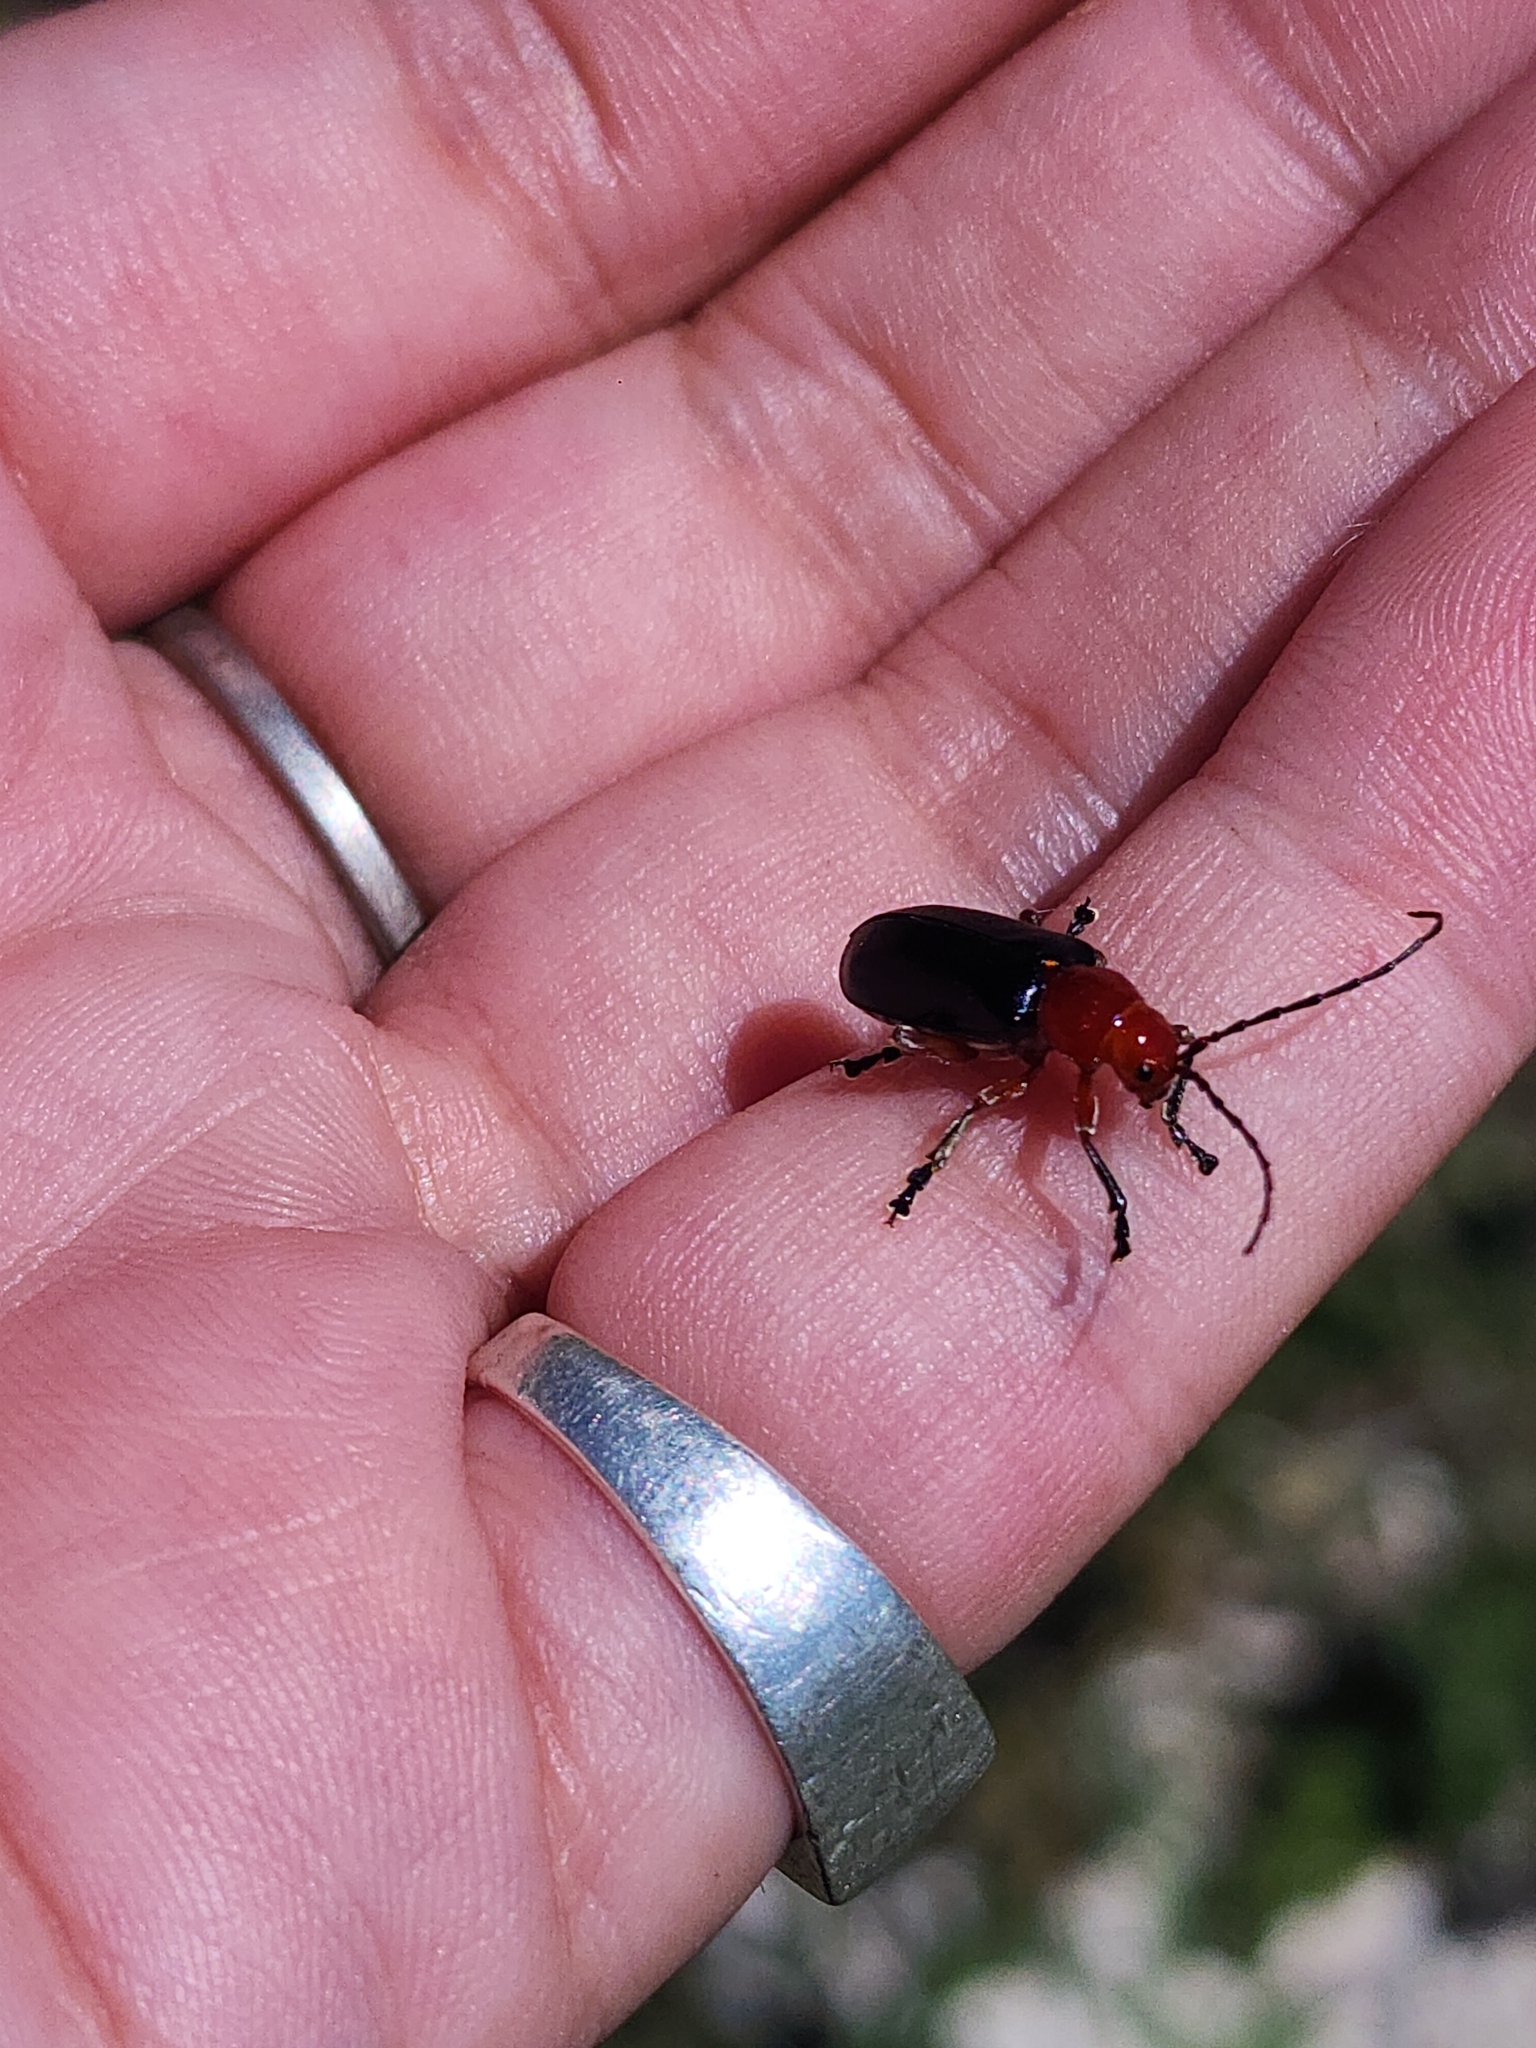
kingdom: Animalia
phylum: Arthropoda
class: Insecta
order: Coleoptera
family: Chrysomelidae
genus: Cacoscelis
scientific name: Cacoscelis
